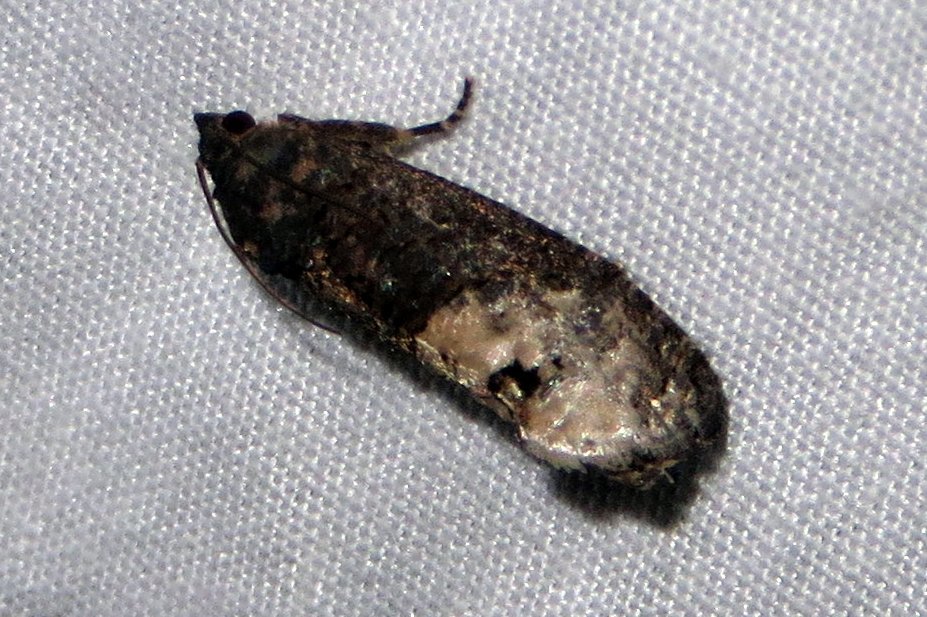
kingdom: Animalia
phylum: Arthropoda
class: Insecta
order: Lepidoptera
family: Tortricidae
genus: Ecdytolopha
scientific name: Ecdytolopha insiticiana
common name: Locust twig borer moth
